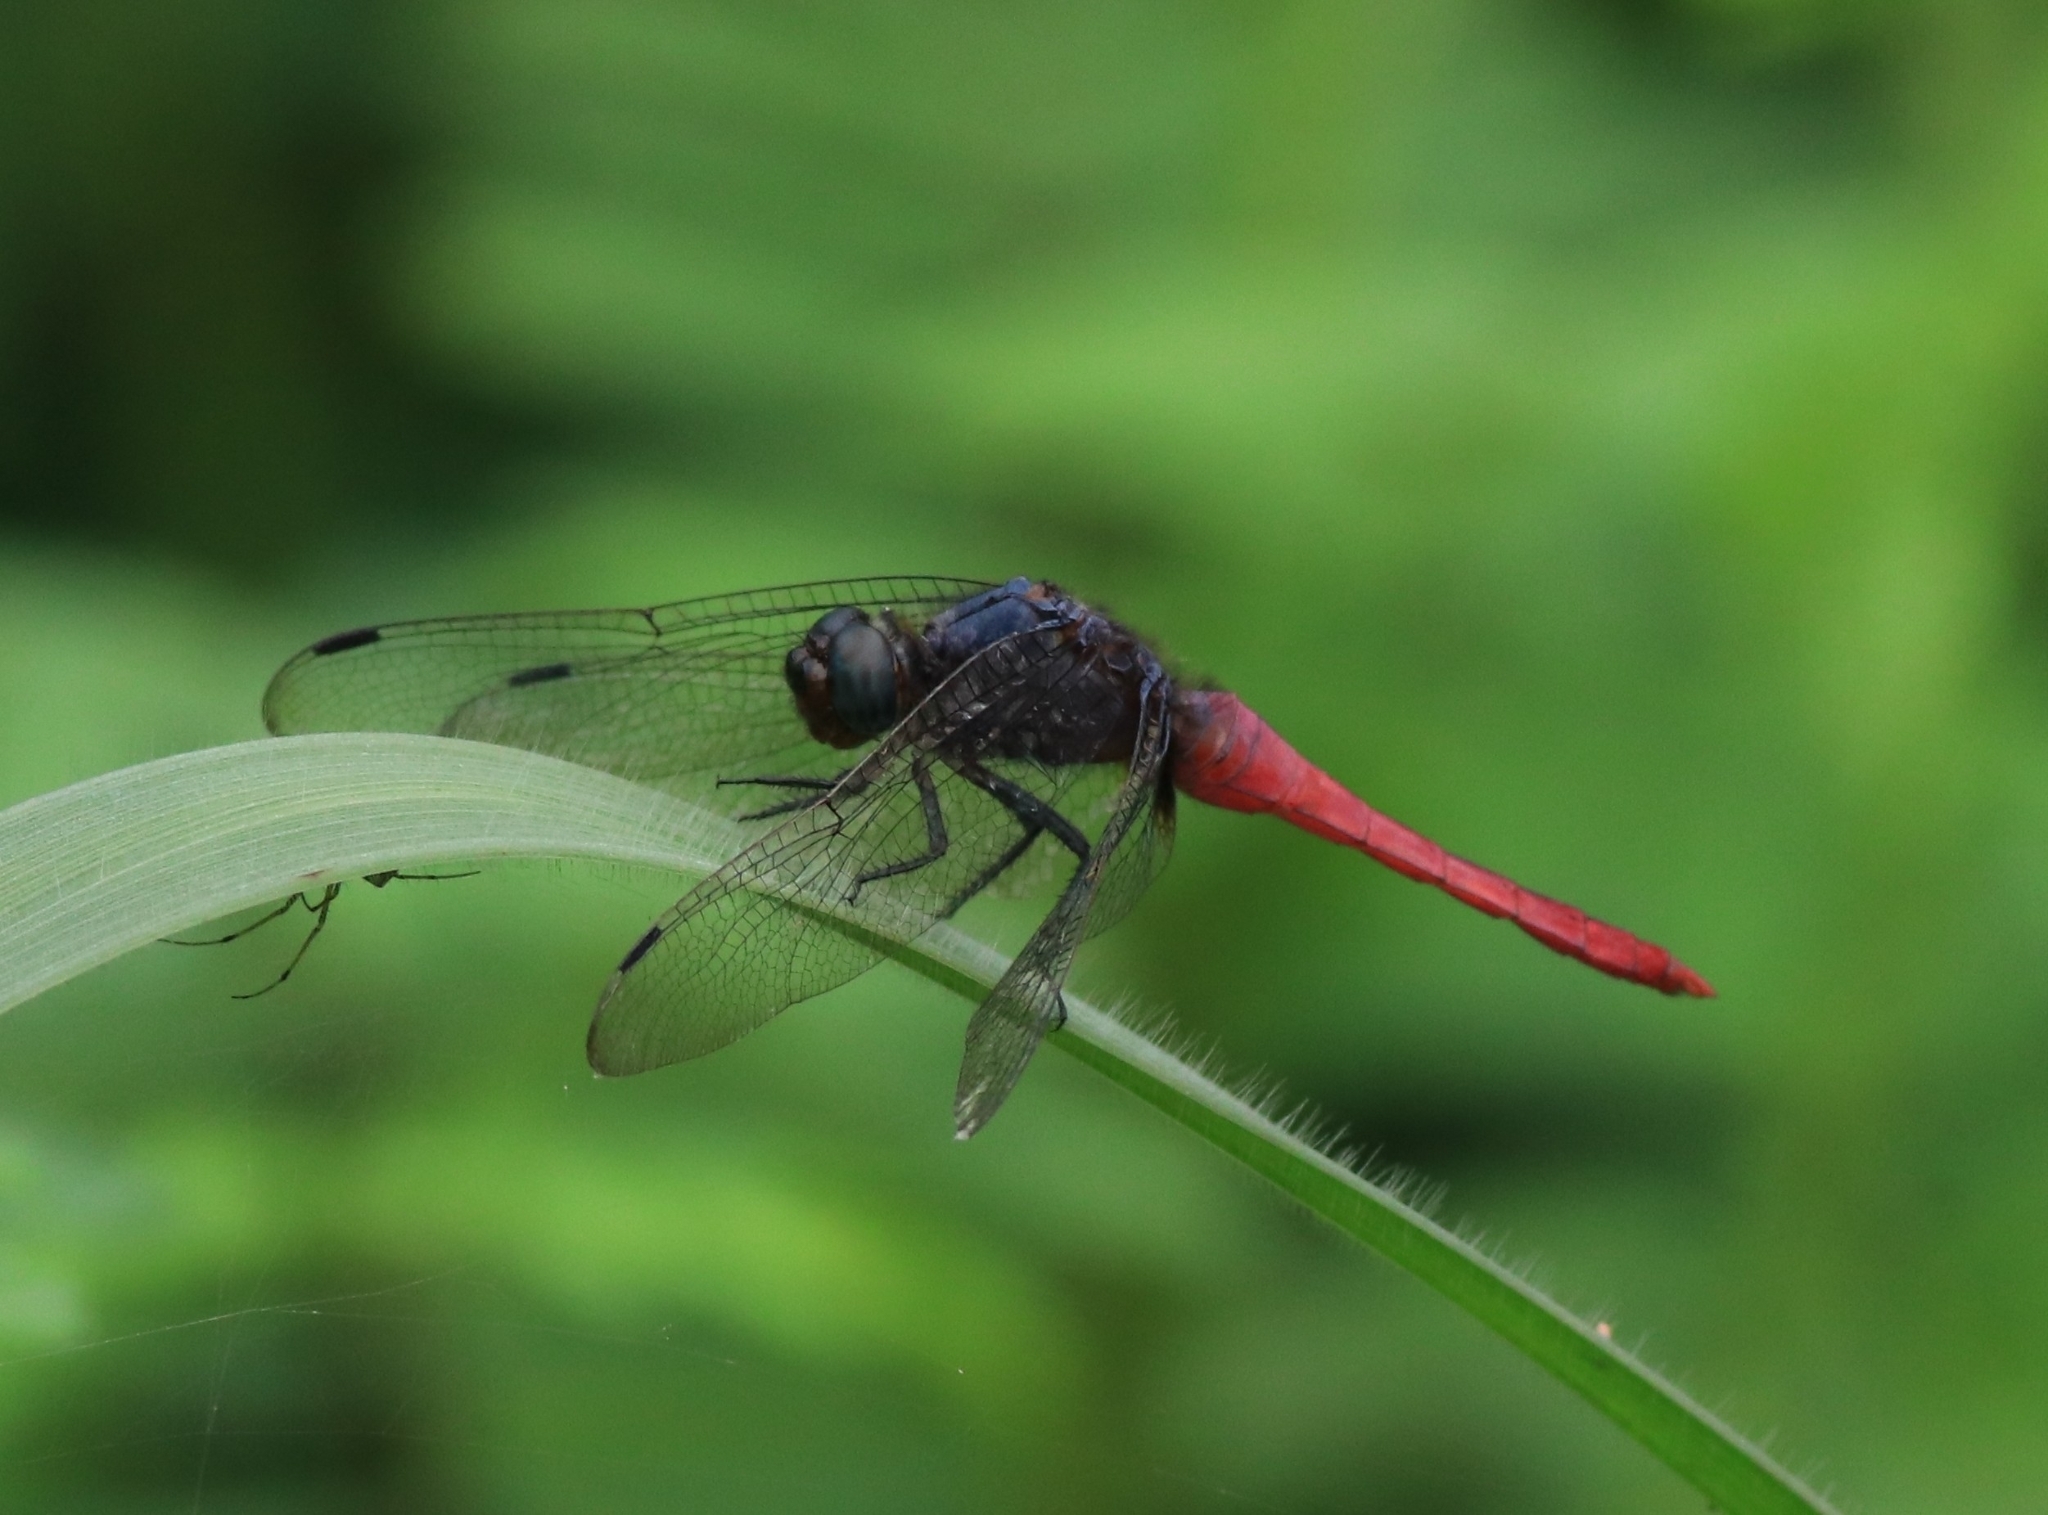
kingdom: Animalia
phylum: Arthropoda
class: Insecta
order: Odonata
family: Libellulidae
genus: Orthetrum
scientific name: Orthetrum pruinosum
